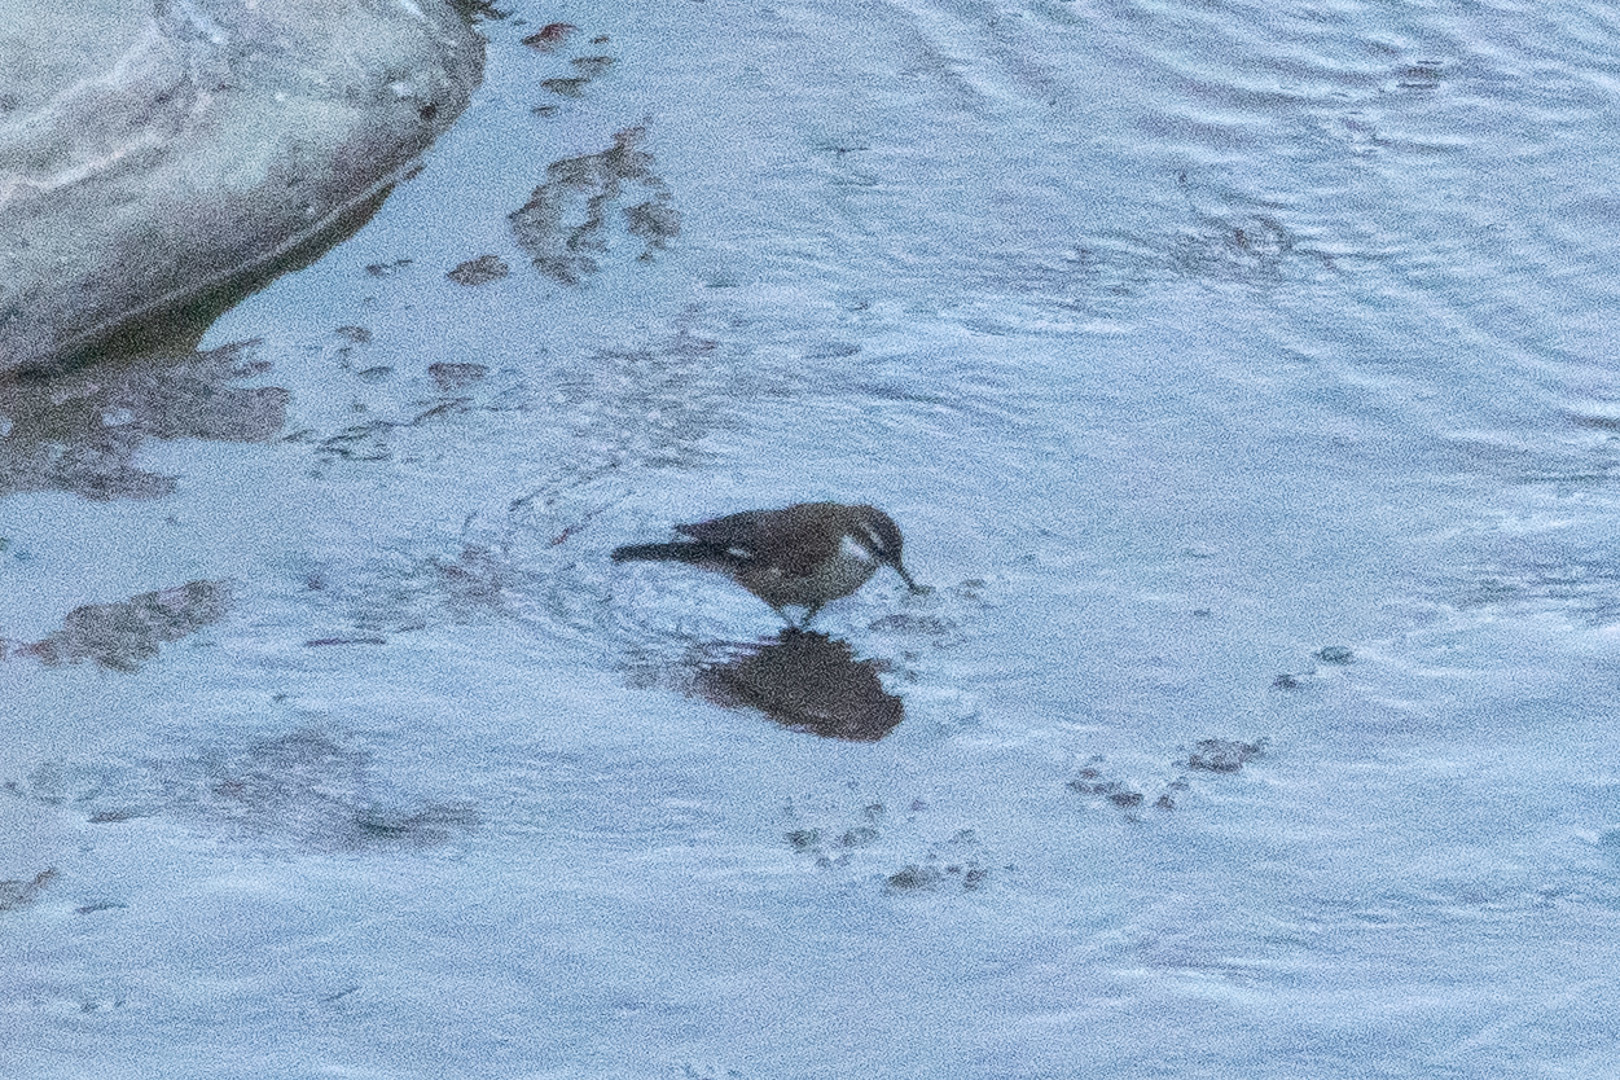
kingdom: Animalia
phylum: Chordata
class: Aves
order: Passeriformes
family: Furnariidae
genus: Cinclodes
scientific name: Cinclodes atacamensis
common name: White-winged cinclodes
